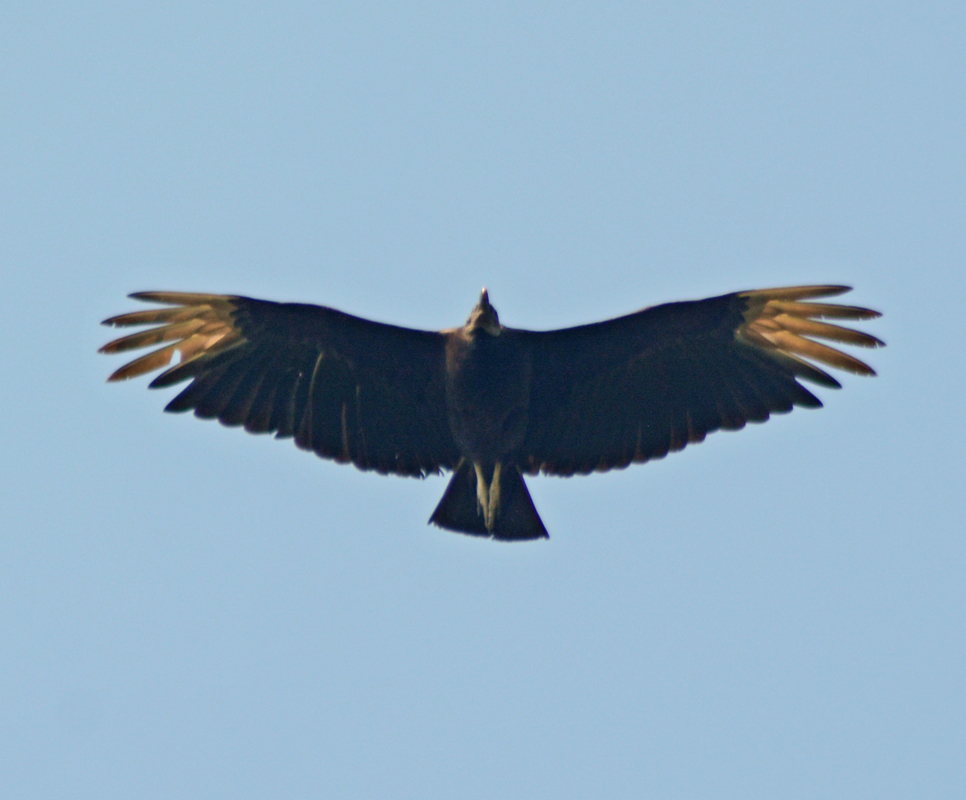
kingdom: Animalia
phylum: Chordata
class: Aves
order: Accipitriformes
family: Cathartidae
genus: Coragyps
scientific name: Coragyps atratus
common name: Black vulture
